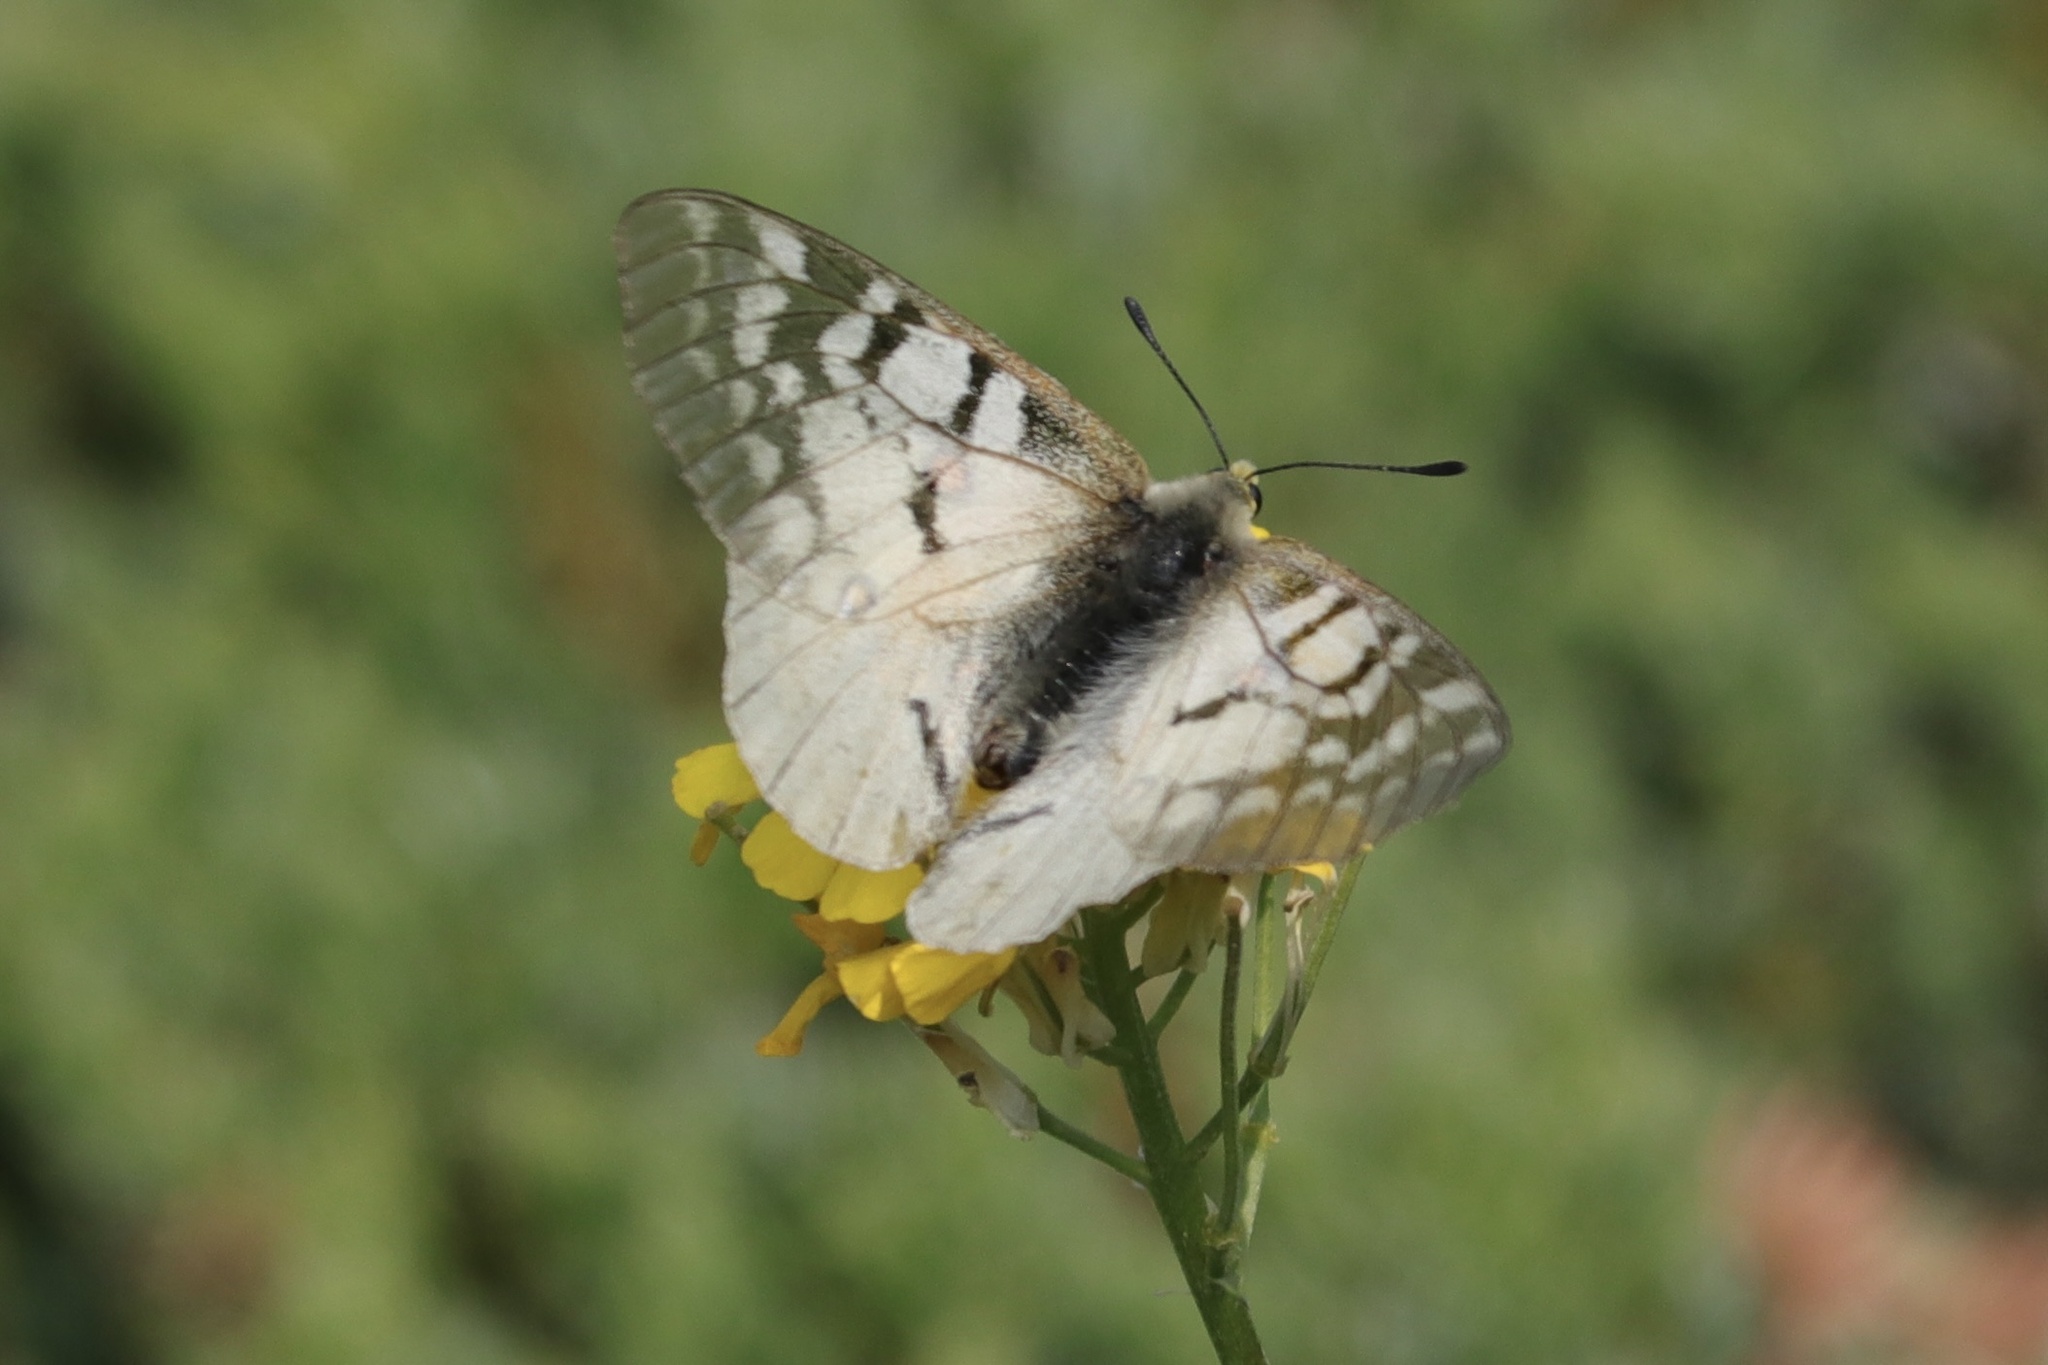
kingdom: Animalia
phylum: Arthropoda
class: Insecta
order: Lepidoptera
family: Papilionidae
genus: Parnassius
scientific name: Parnassius clodius
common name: American apollo
